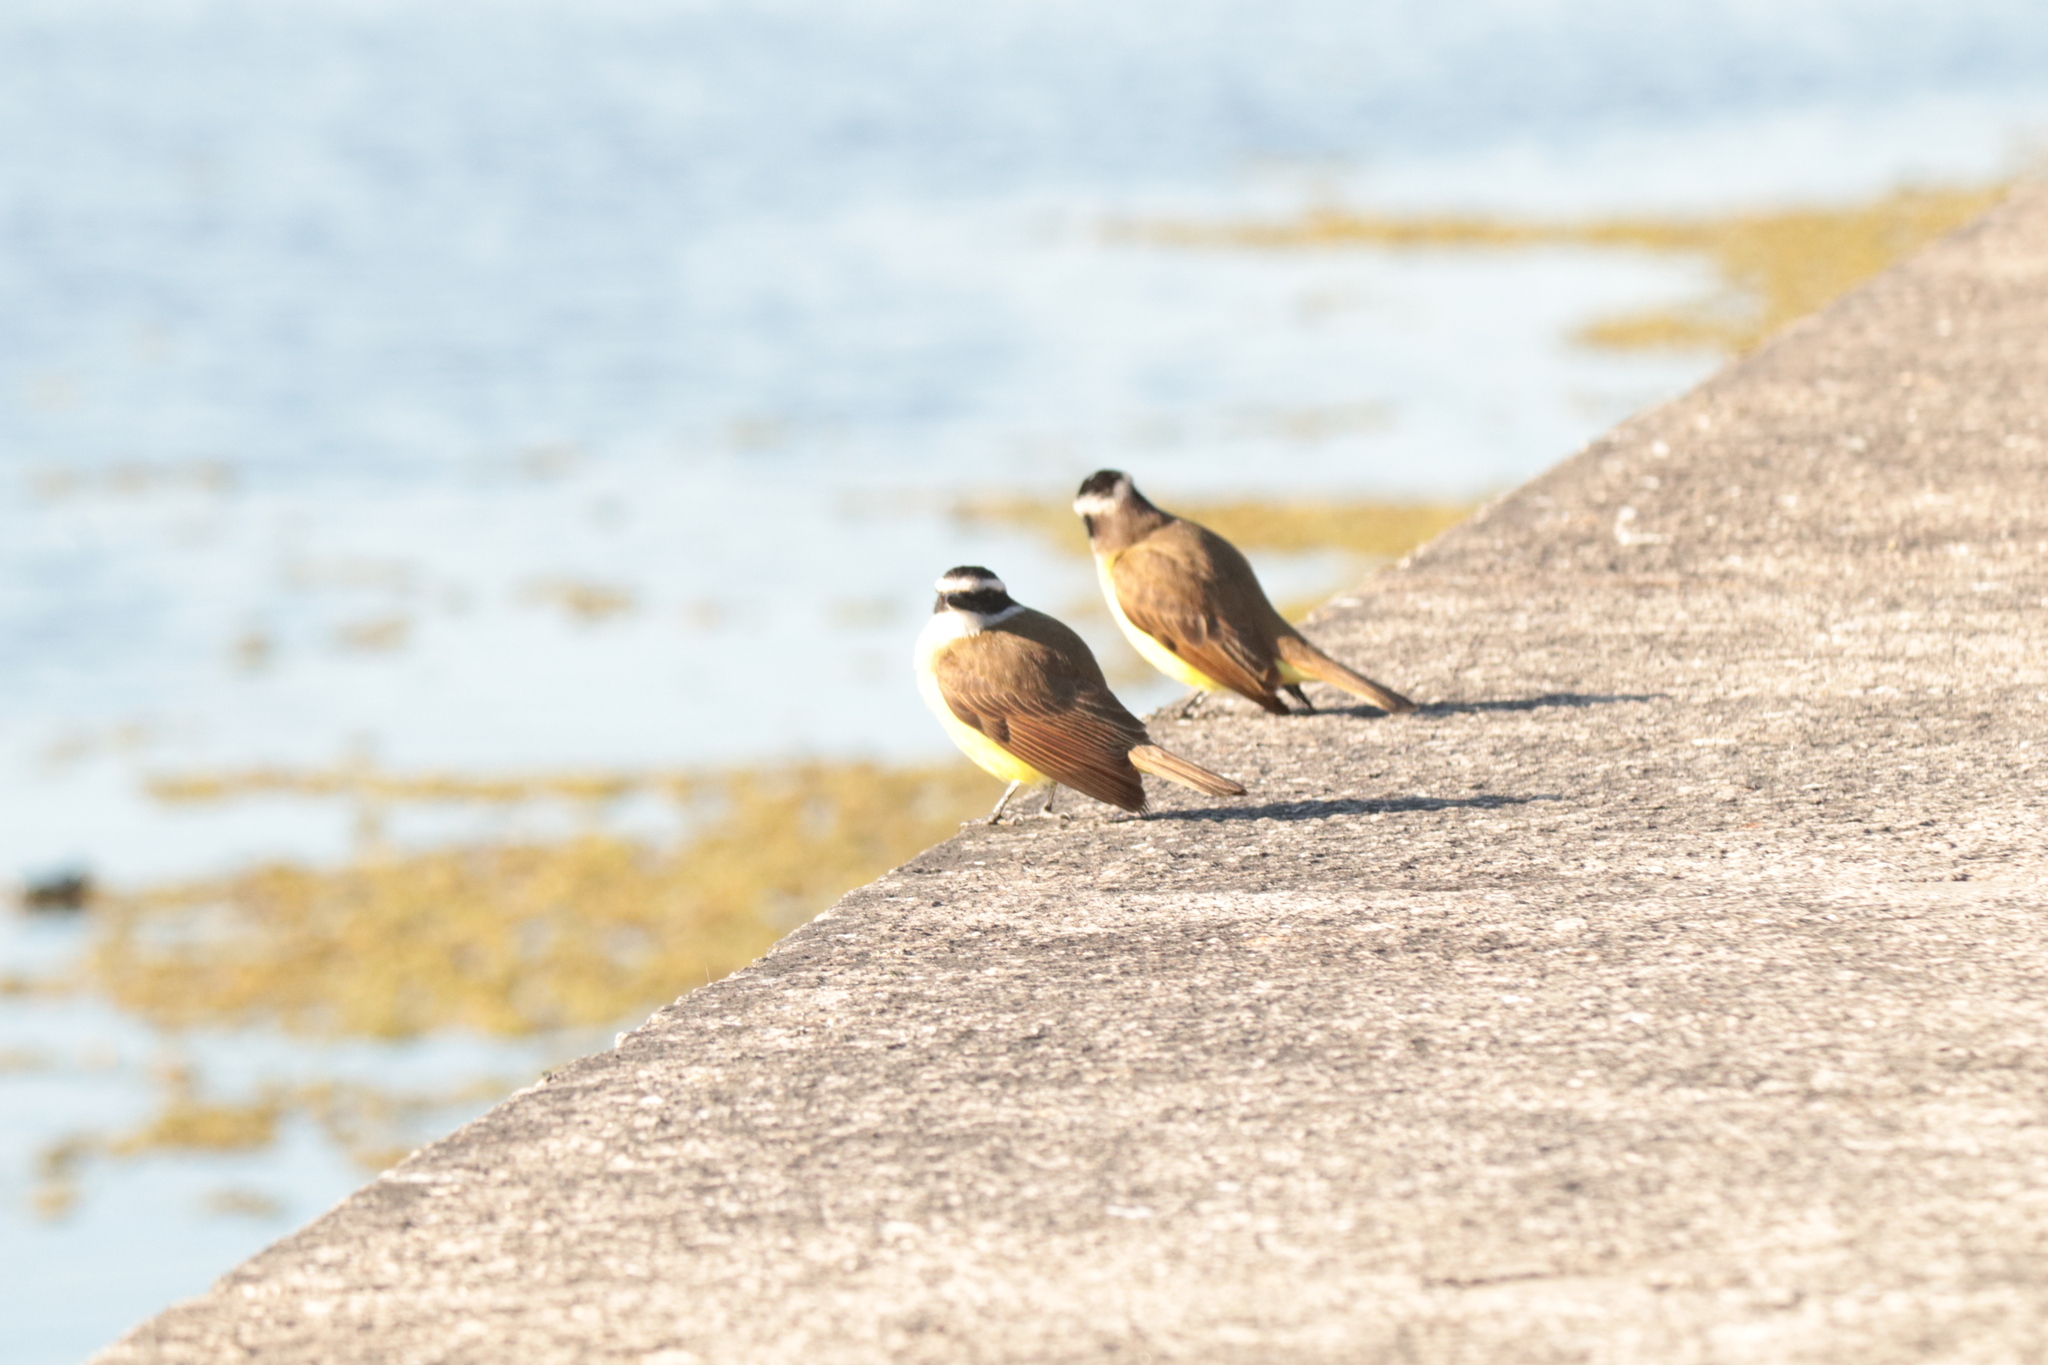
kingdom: Animalia
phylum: Chordata
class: Aves
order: Passeriformes
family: Tyrannidae
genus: Pitangus
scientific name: Pitangus sulphuratus
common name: Great kiskadee
